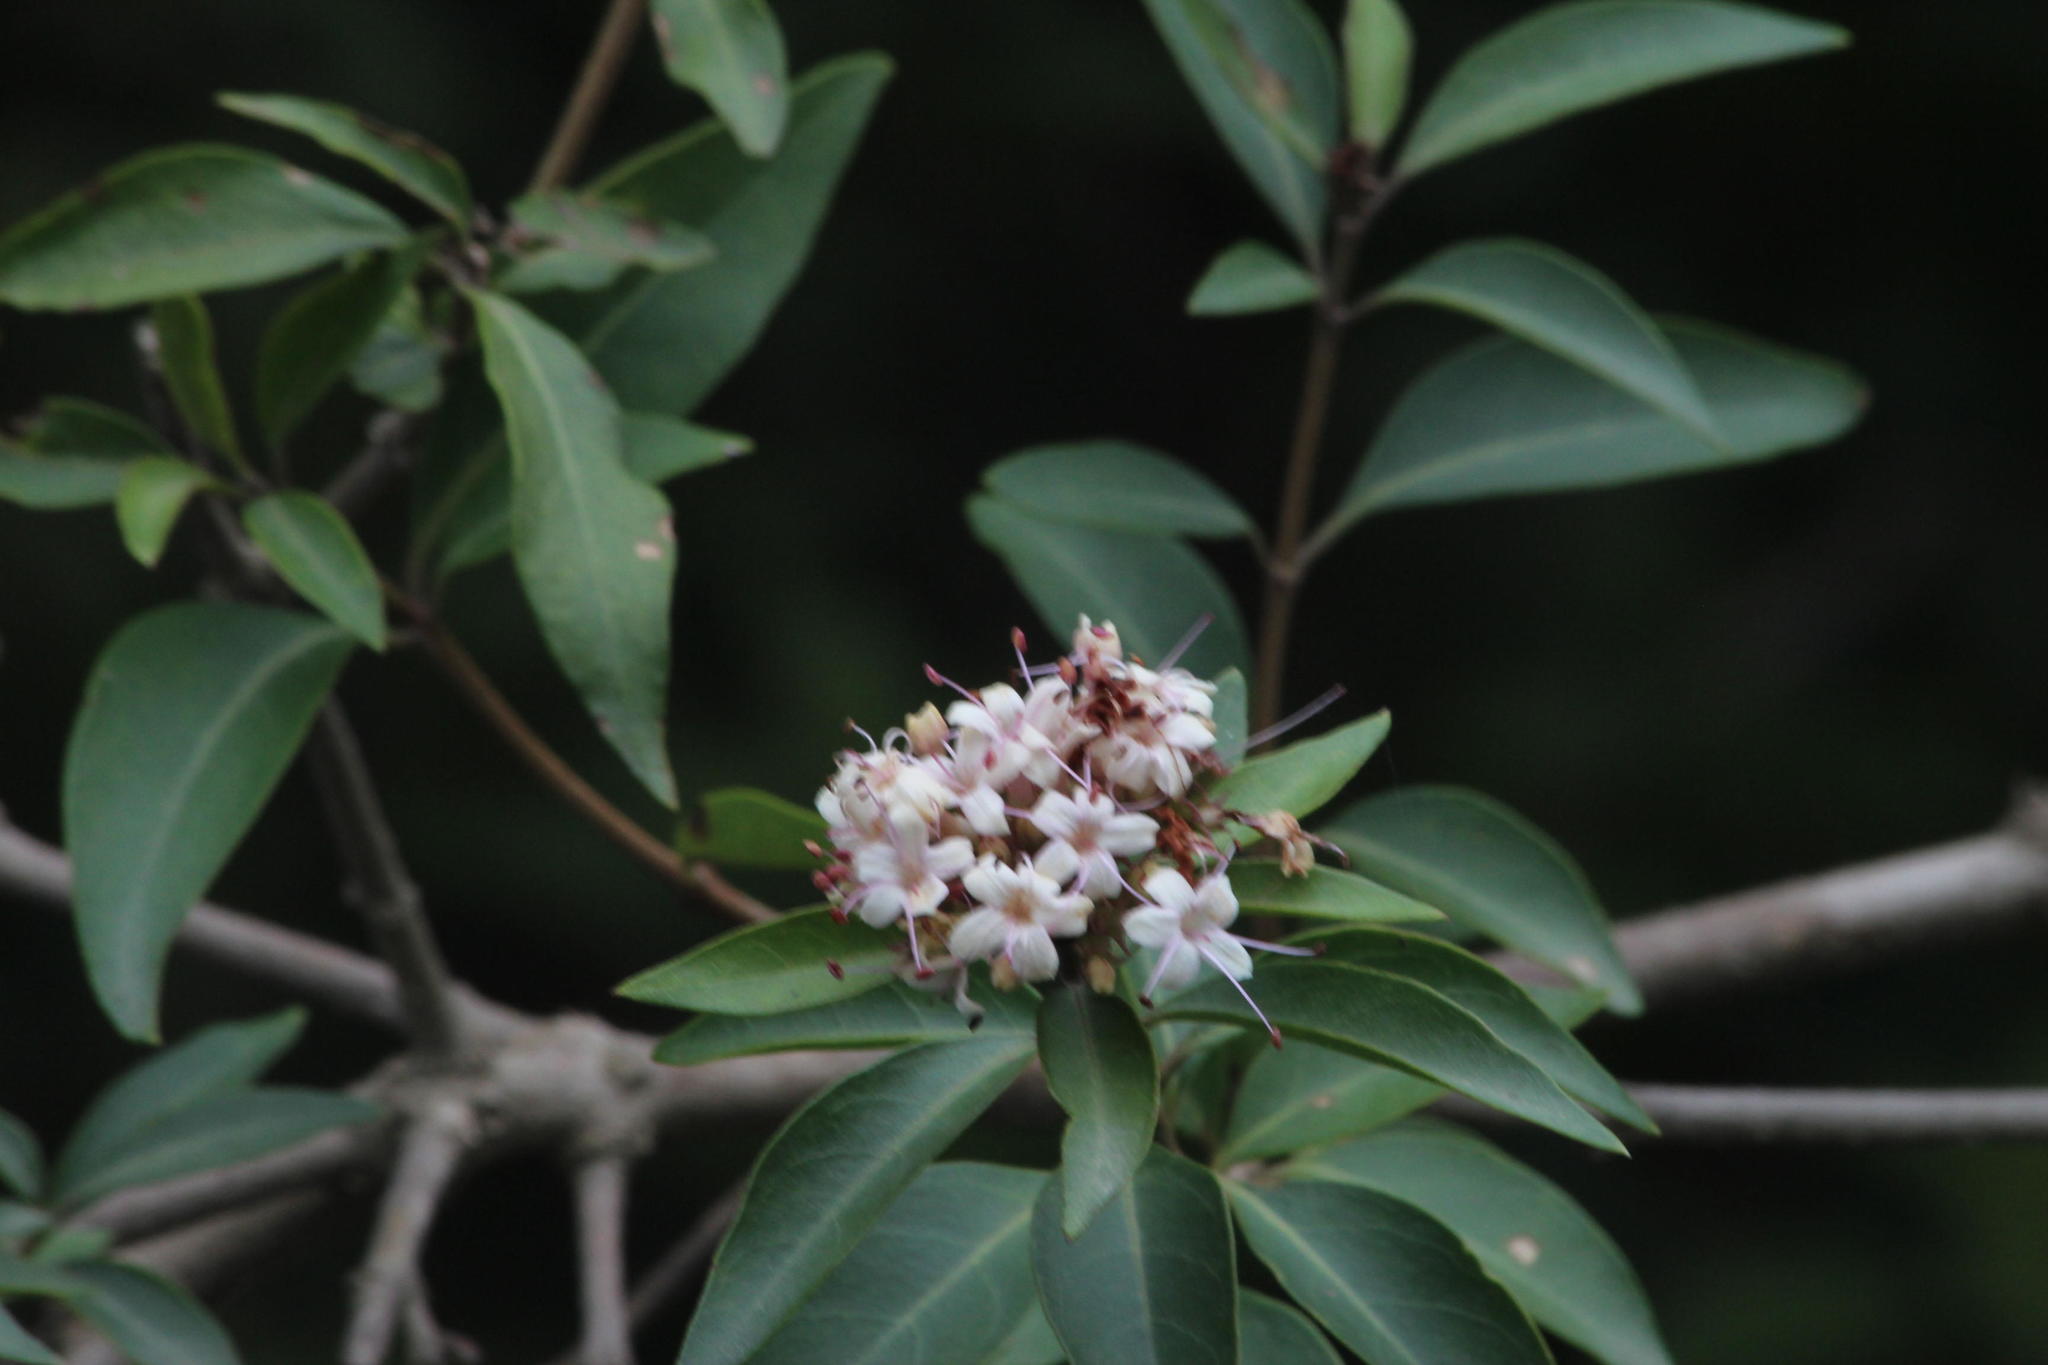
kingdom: Plantae
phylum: Tracheophyta
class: Magnoliopsida
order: Lamiales
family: Lamiaceae
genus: Volkameria
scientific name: Volkameria glabra
